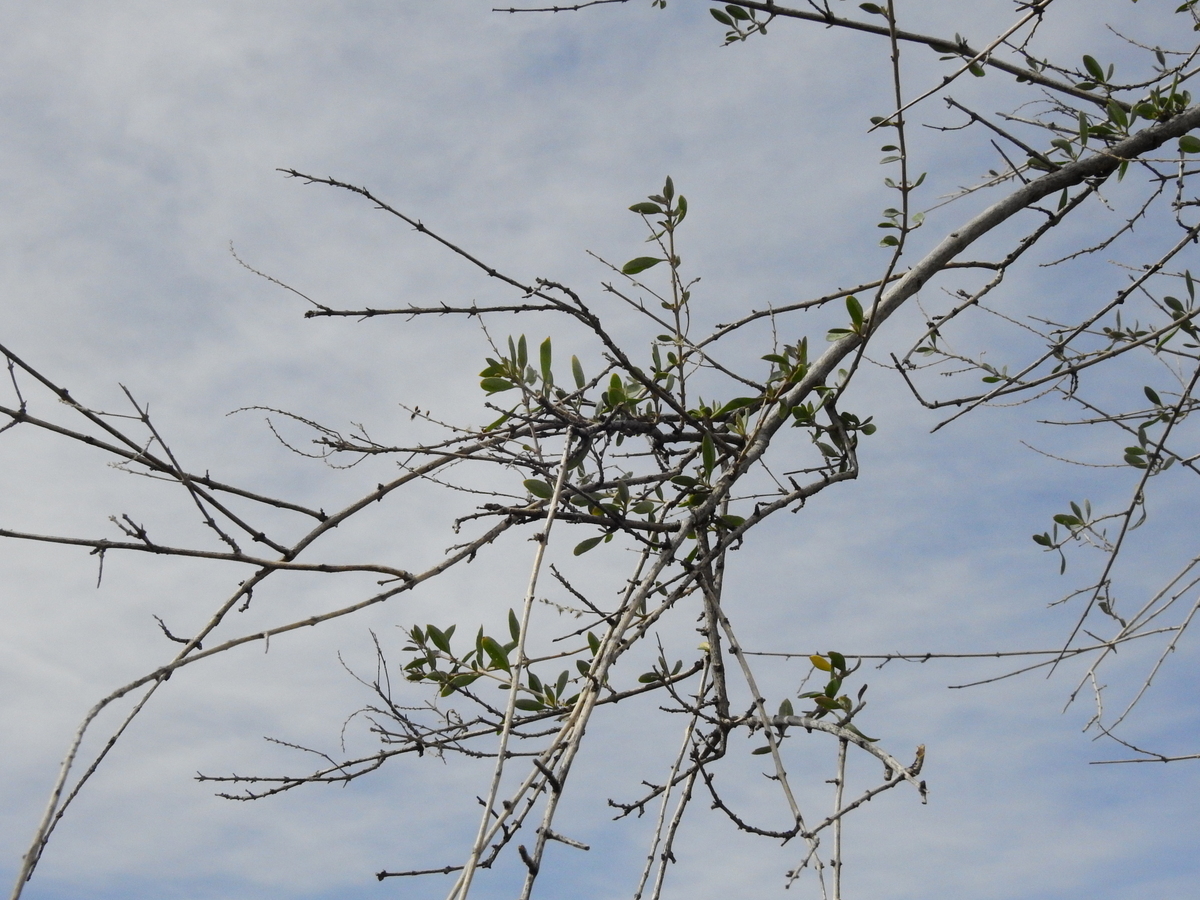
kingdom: Plantae
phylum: Tracheophyta
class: Magnoliopsida
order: Lamiales
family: Verbenaceae
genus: Aloysia
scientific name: Aloysia gratissima
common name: Common bee-brush
